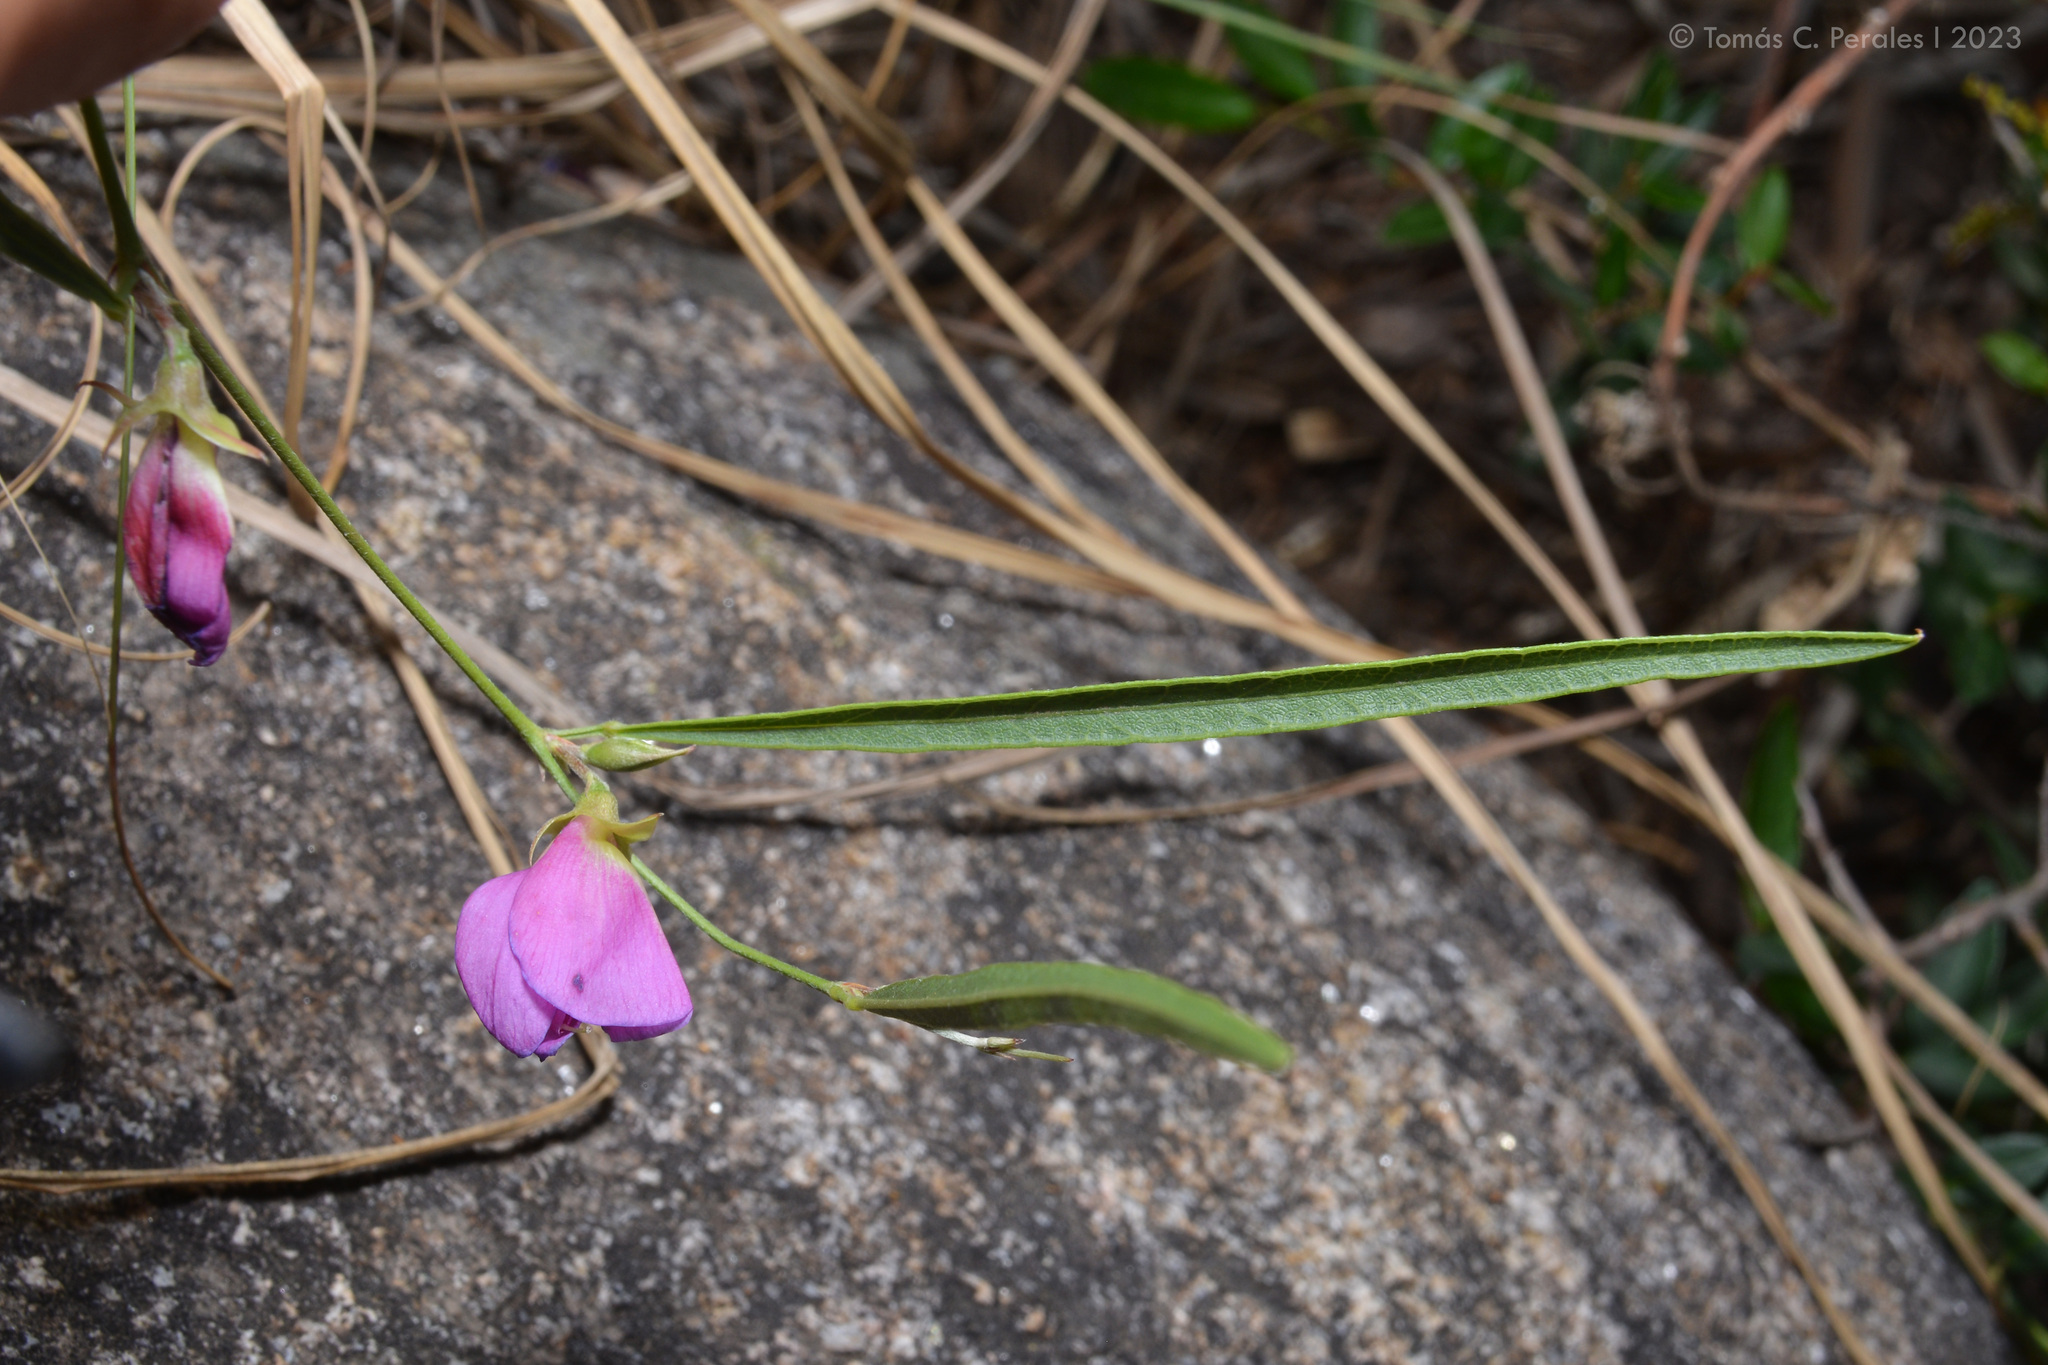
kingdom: Plantae
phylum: Tracheophyta
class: Magnoliopsida
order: Fabales
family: Fabaceae
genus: Nanogalactia
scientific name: Nanogalactia heterophylla
